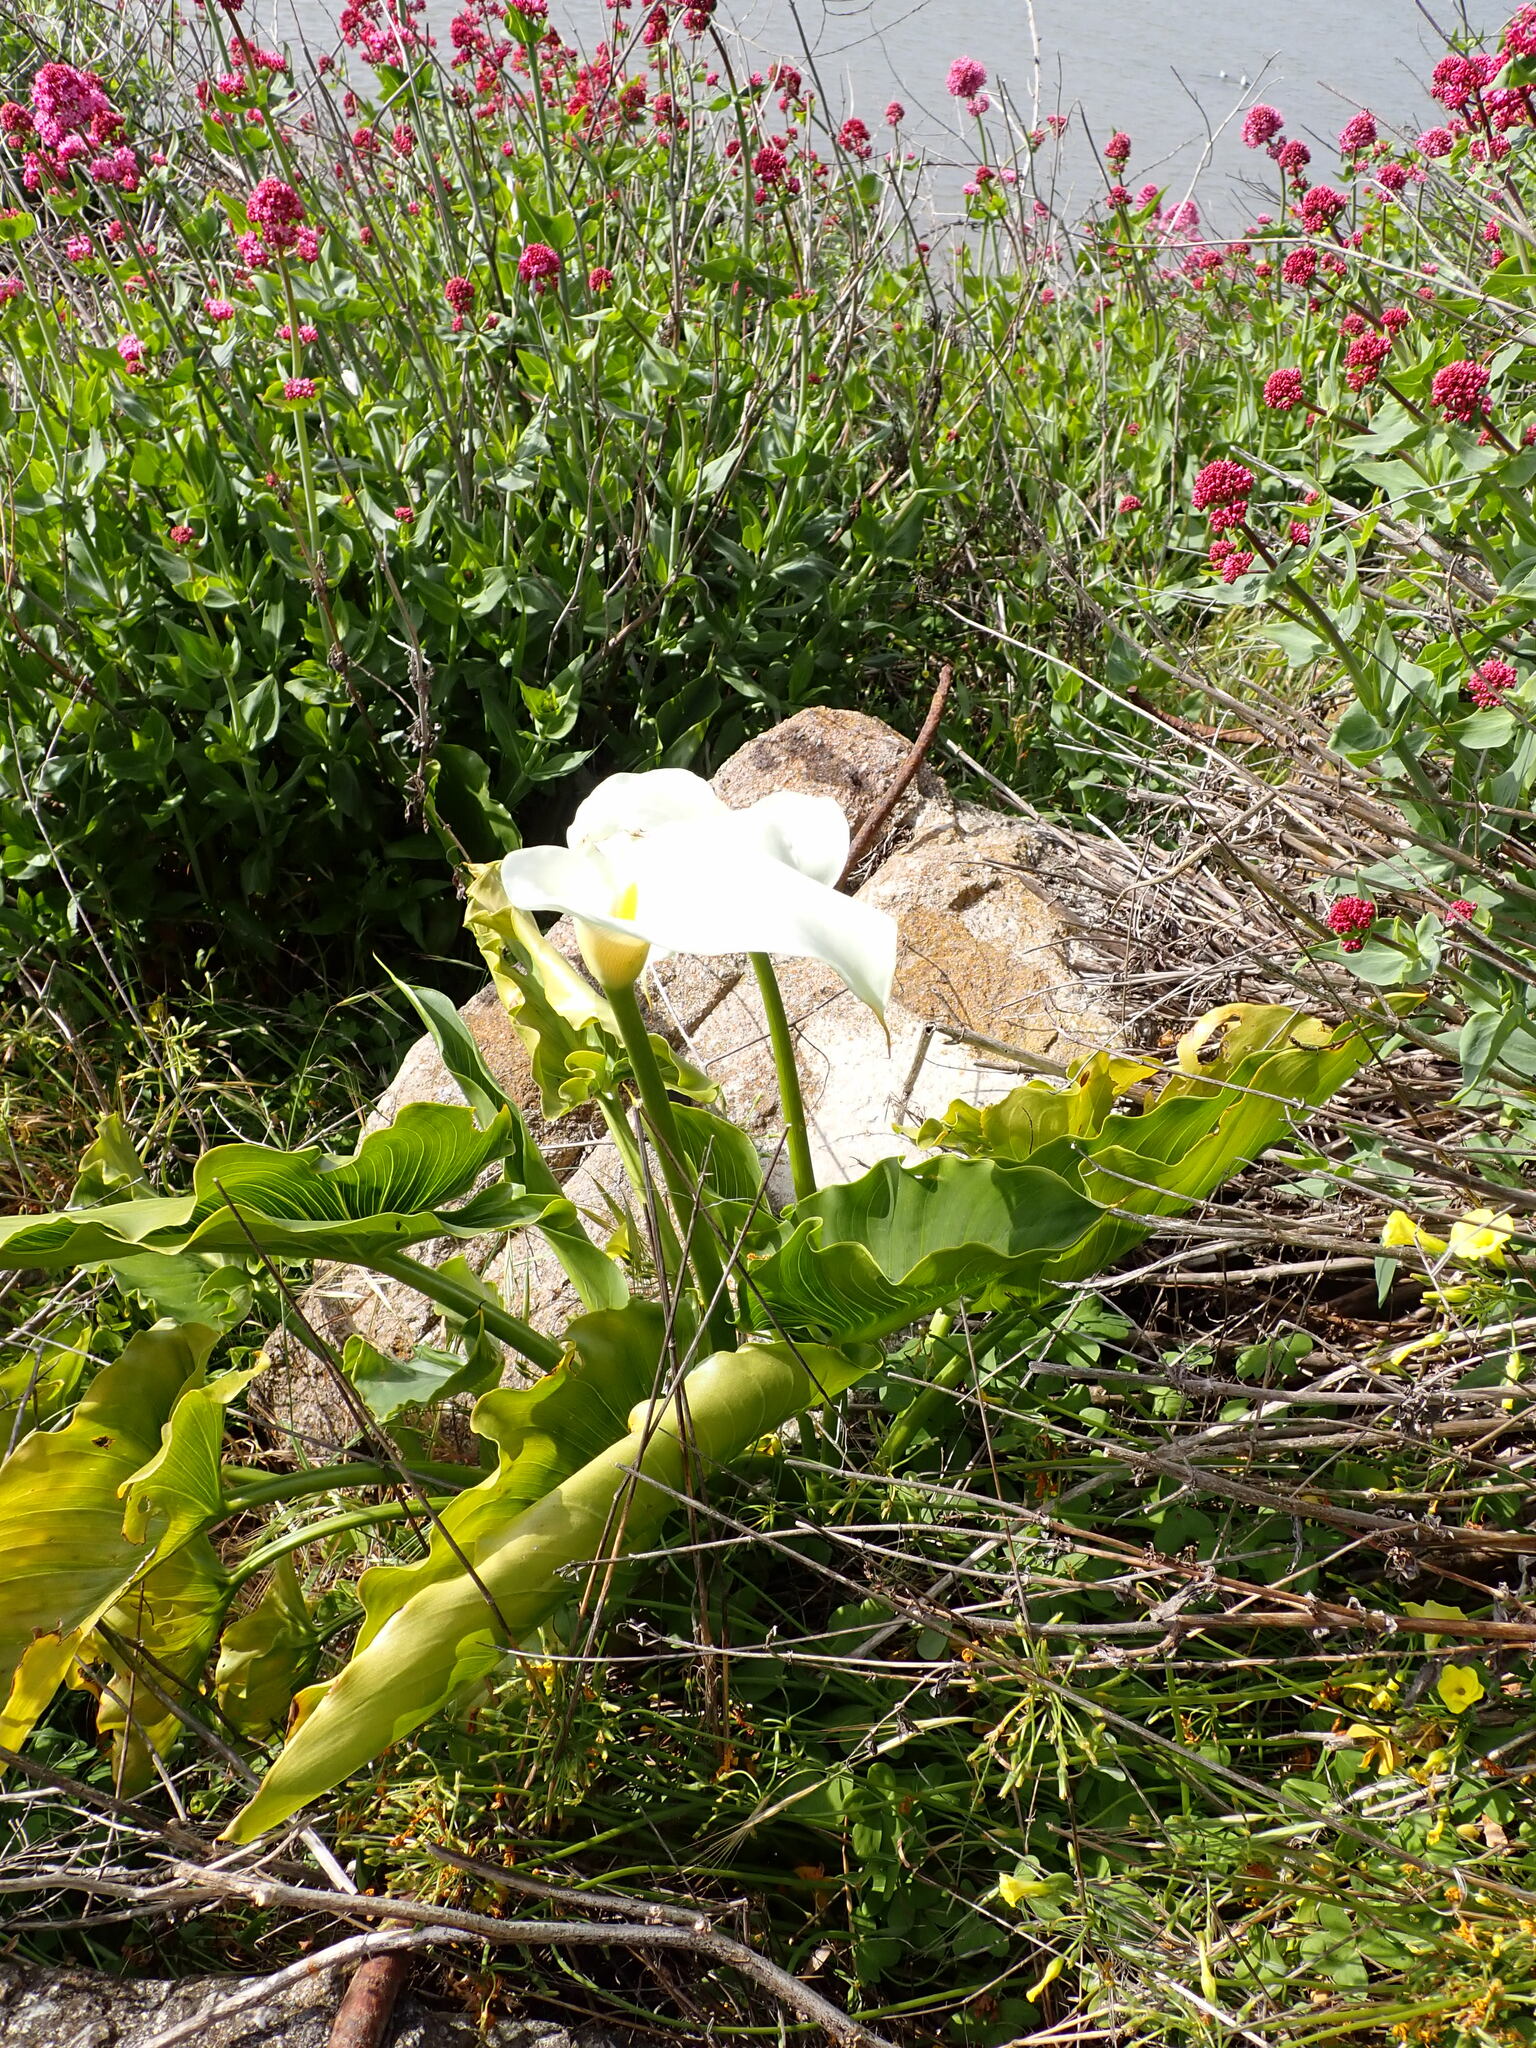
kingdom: Plantae
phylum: Tracheophyta
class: Liliopsida
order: Alismatales
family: Araceae
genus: Zantedeschia
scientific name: Zantedeschia aethiopica
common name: Altar-lily
